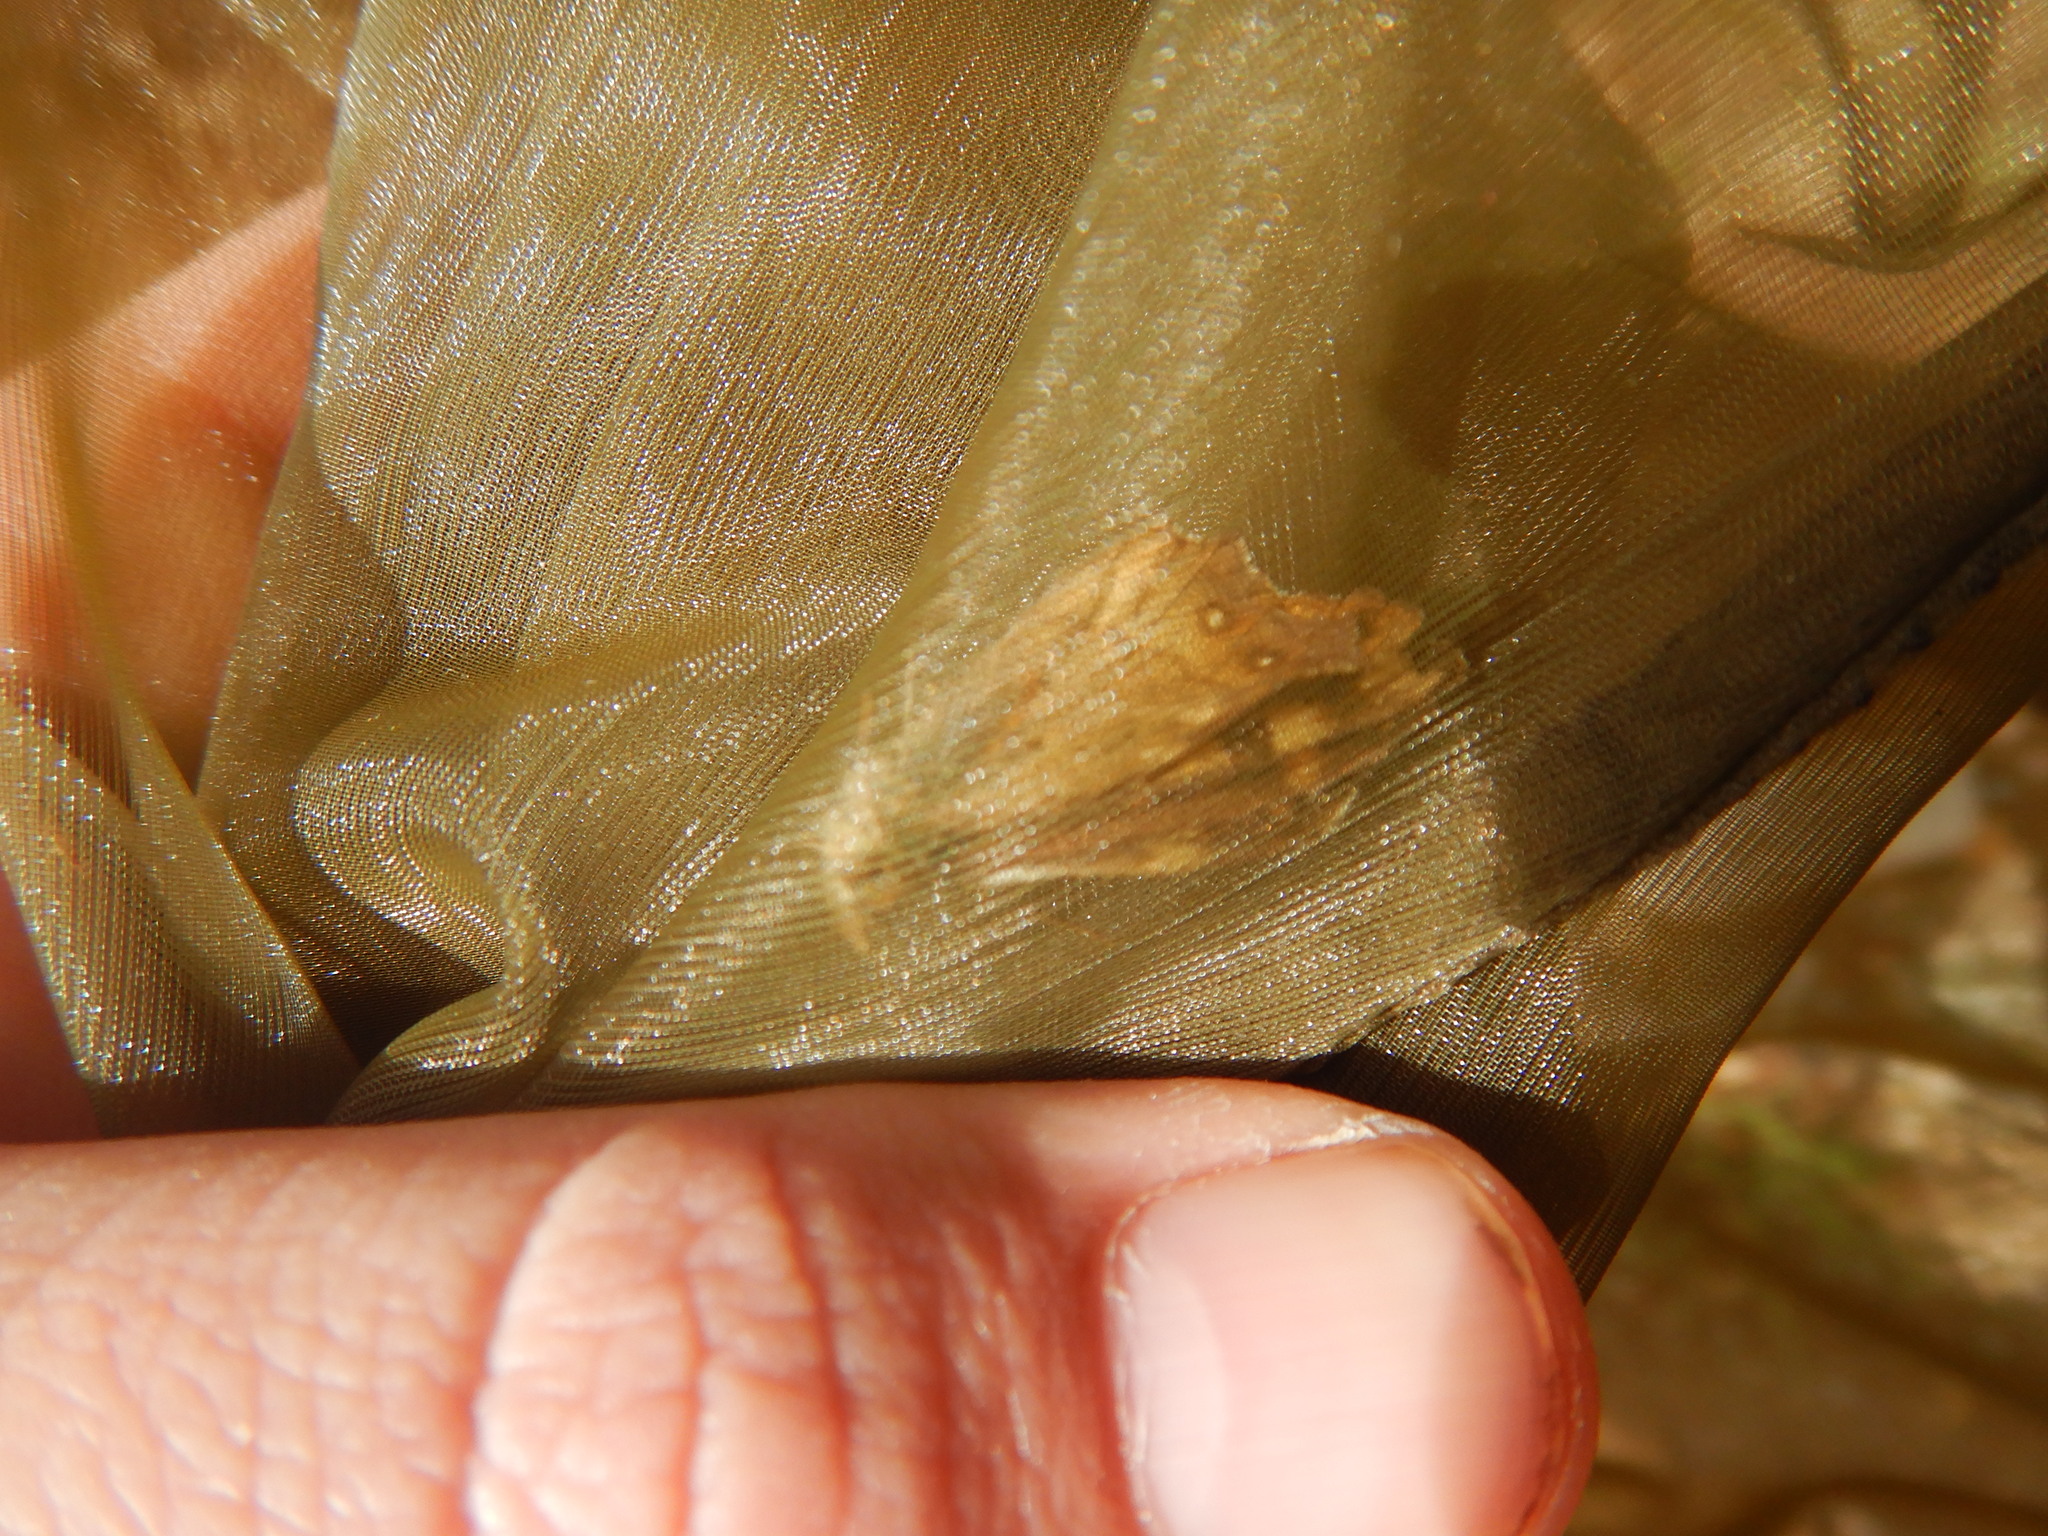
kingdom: Animalia
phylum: Arthropoda
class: Insecta
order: Lepidoptera
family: Nymphalidae
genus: Pararge
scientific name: Pararge aegeria
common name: Speckled wood
